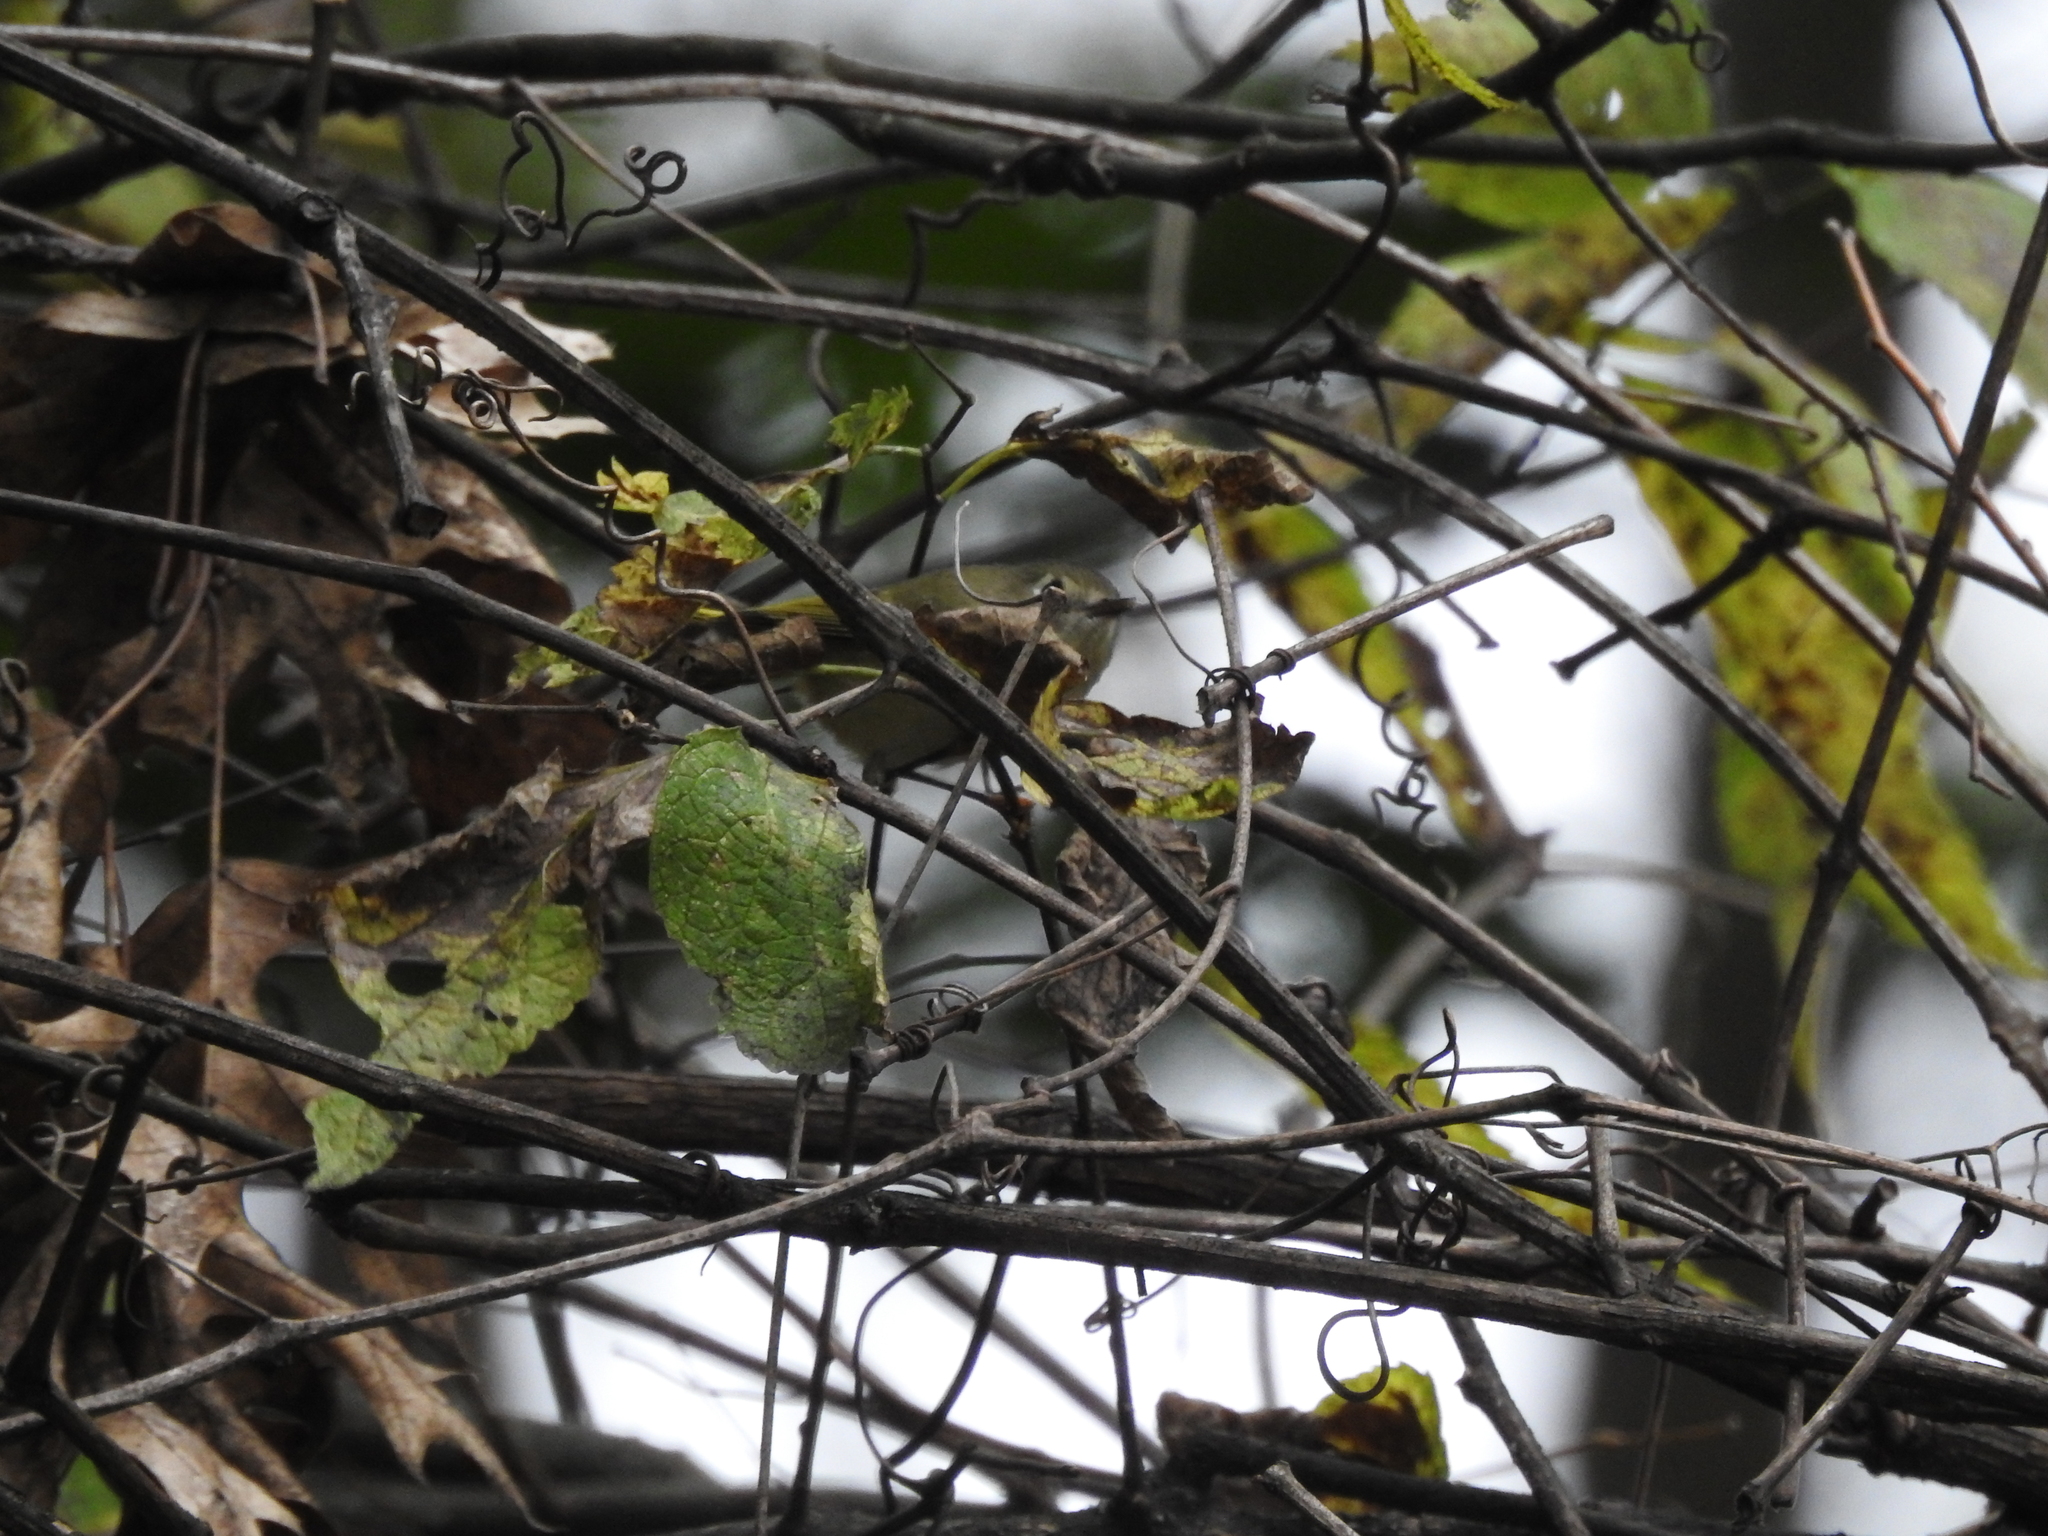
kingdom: Animalia
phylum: Chordata
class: Aves
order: Passeriformes
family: Regulidae
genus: Regulus
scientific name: Regulus calendula
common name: Ruby-crowned kinglet
